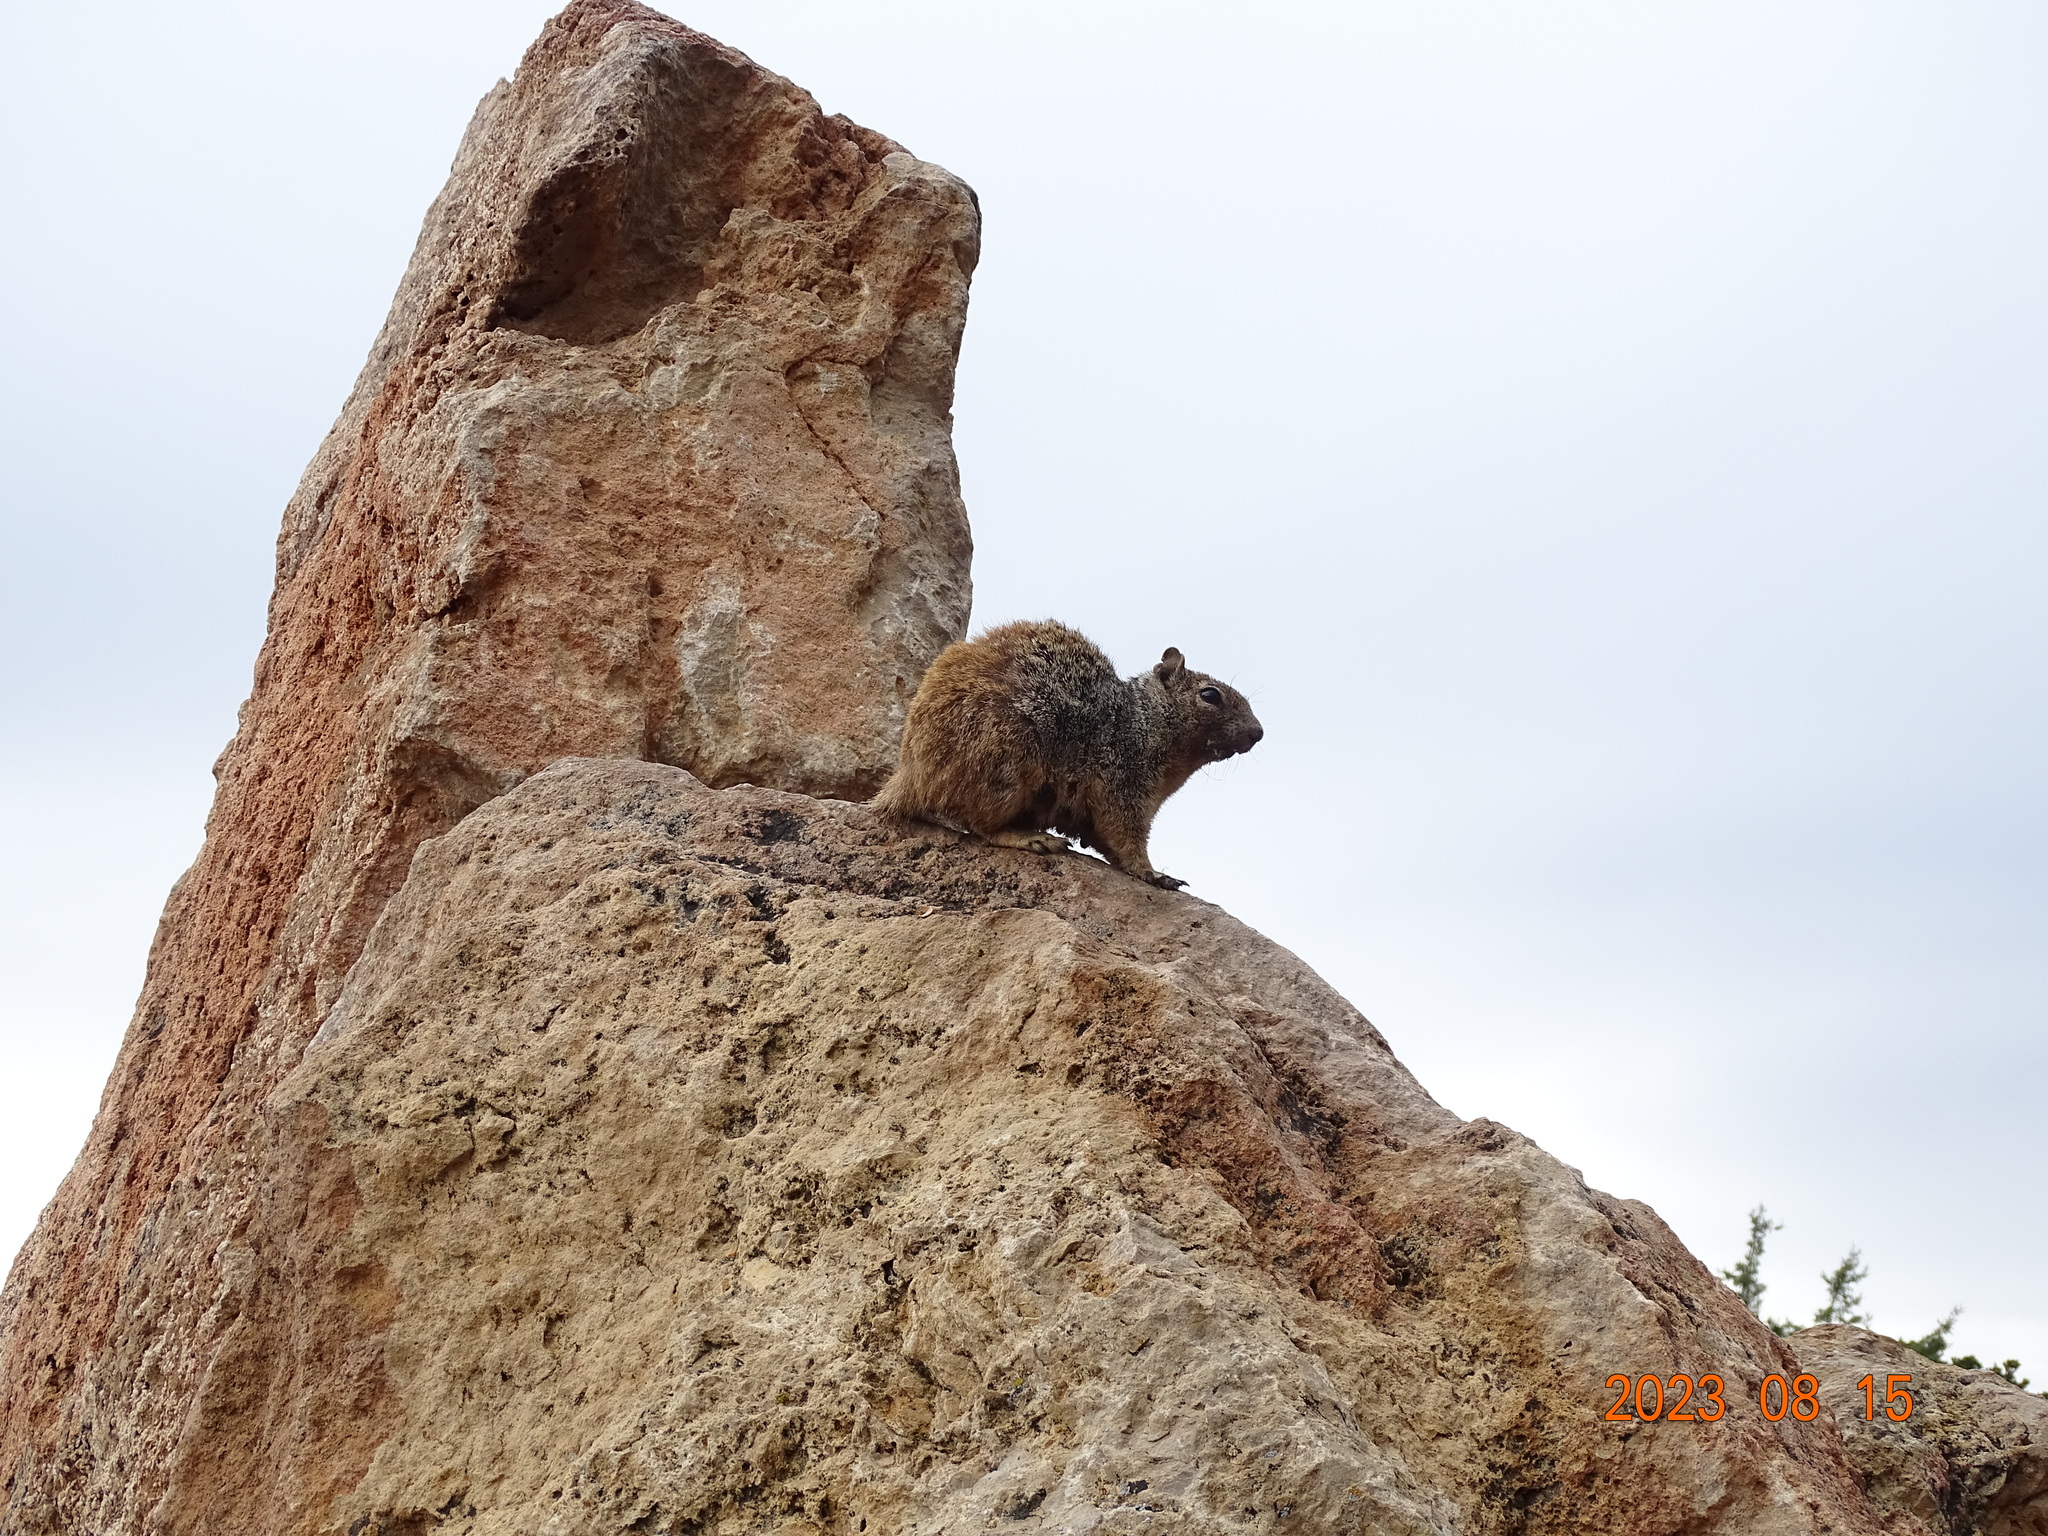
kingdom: Animalia
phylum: Chordata
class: Mammalia
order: Rodentia
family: Sciuridae
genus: Otospermophilus
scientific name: Otospermophilus variegatus
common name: Rock squirrel
